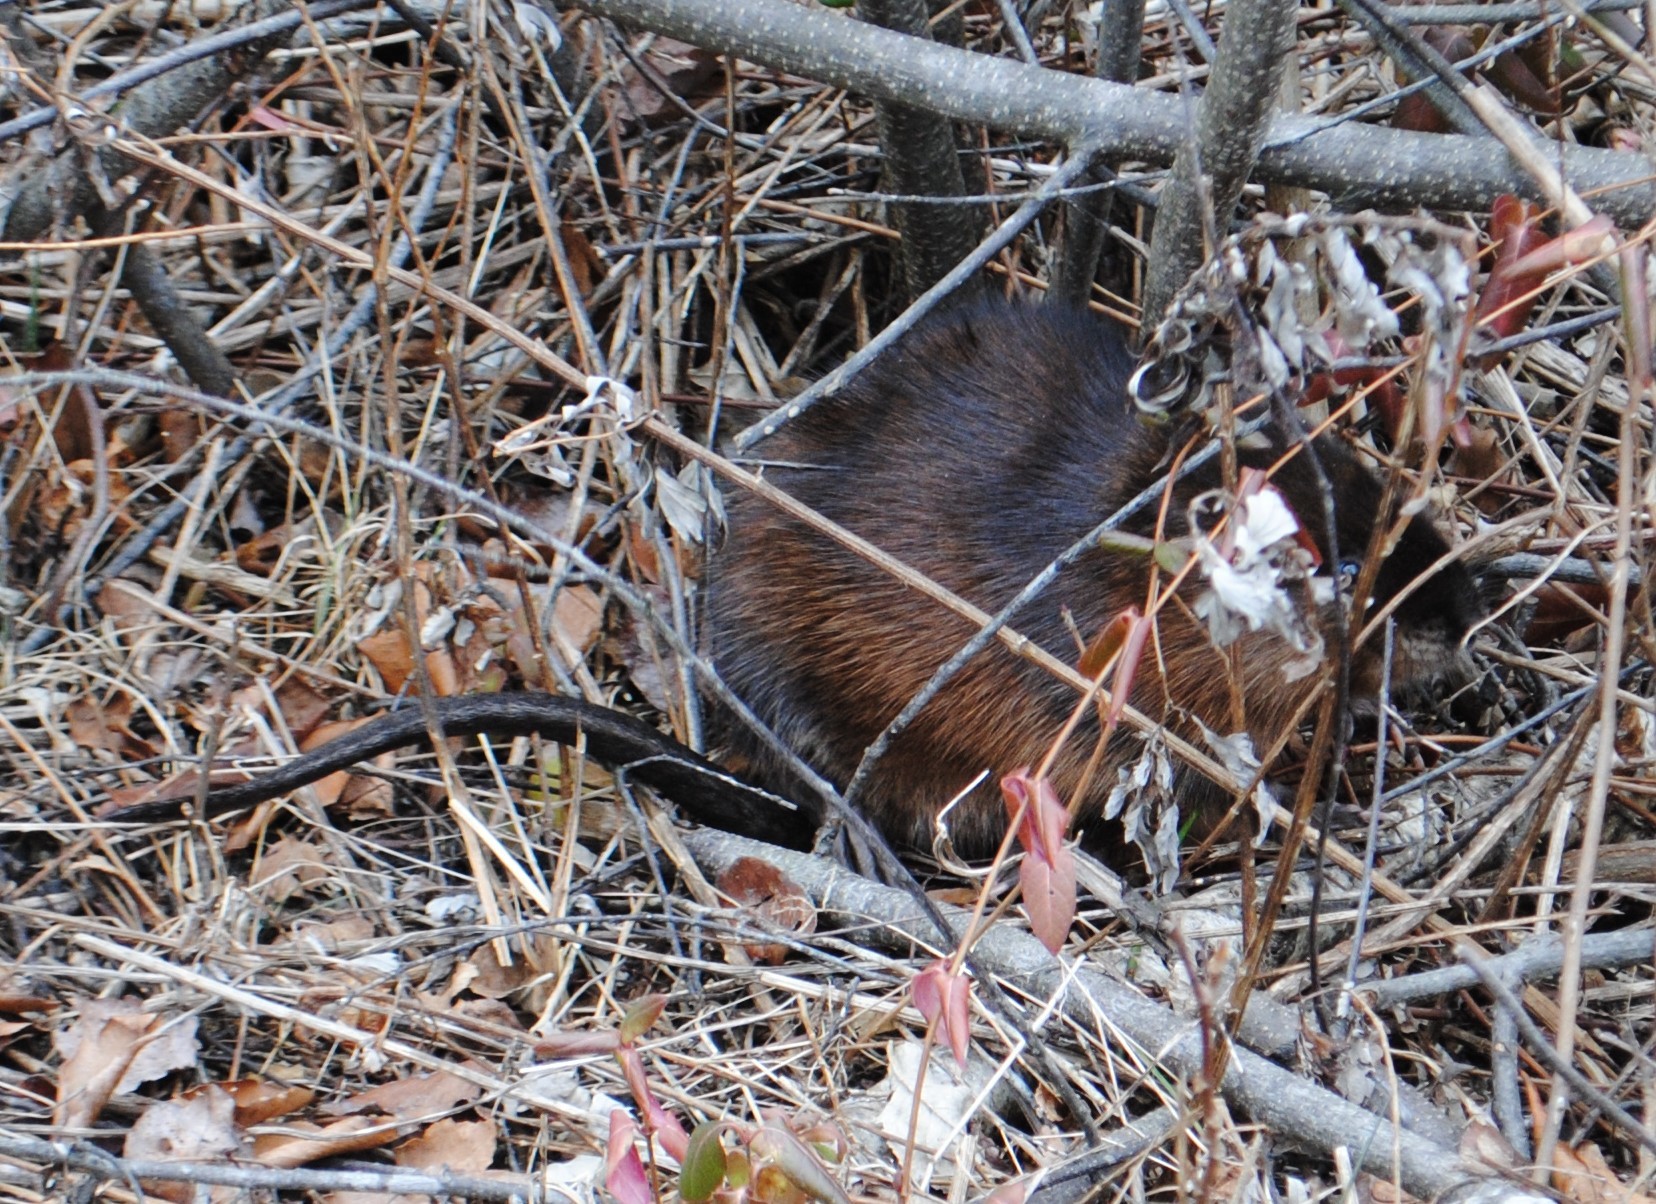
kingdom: Animalia
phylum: Chordata
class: Mammalia
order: Rodentia
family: Cricetidae
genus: Ondatra
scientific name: Ondatra zibethicus
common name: Muskrat
